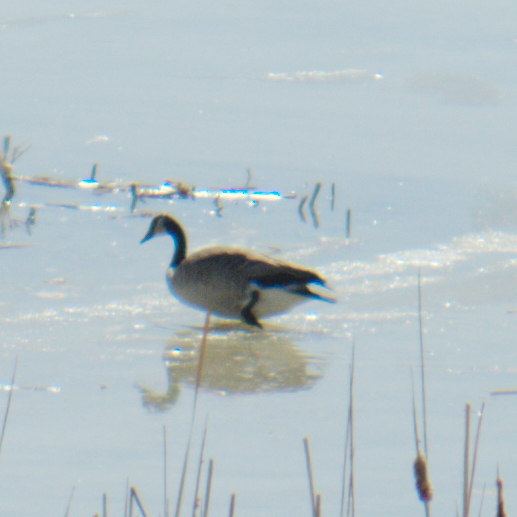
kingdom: Animalia
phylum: Chordata
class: Aves
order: Anseriformes
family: Anatidae
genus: Branta
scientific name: Branta canadensis
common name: Canada goose
